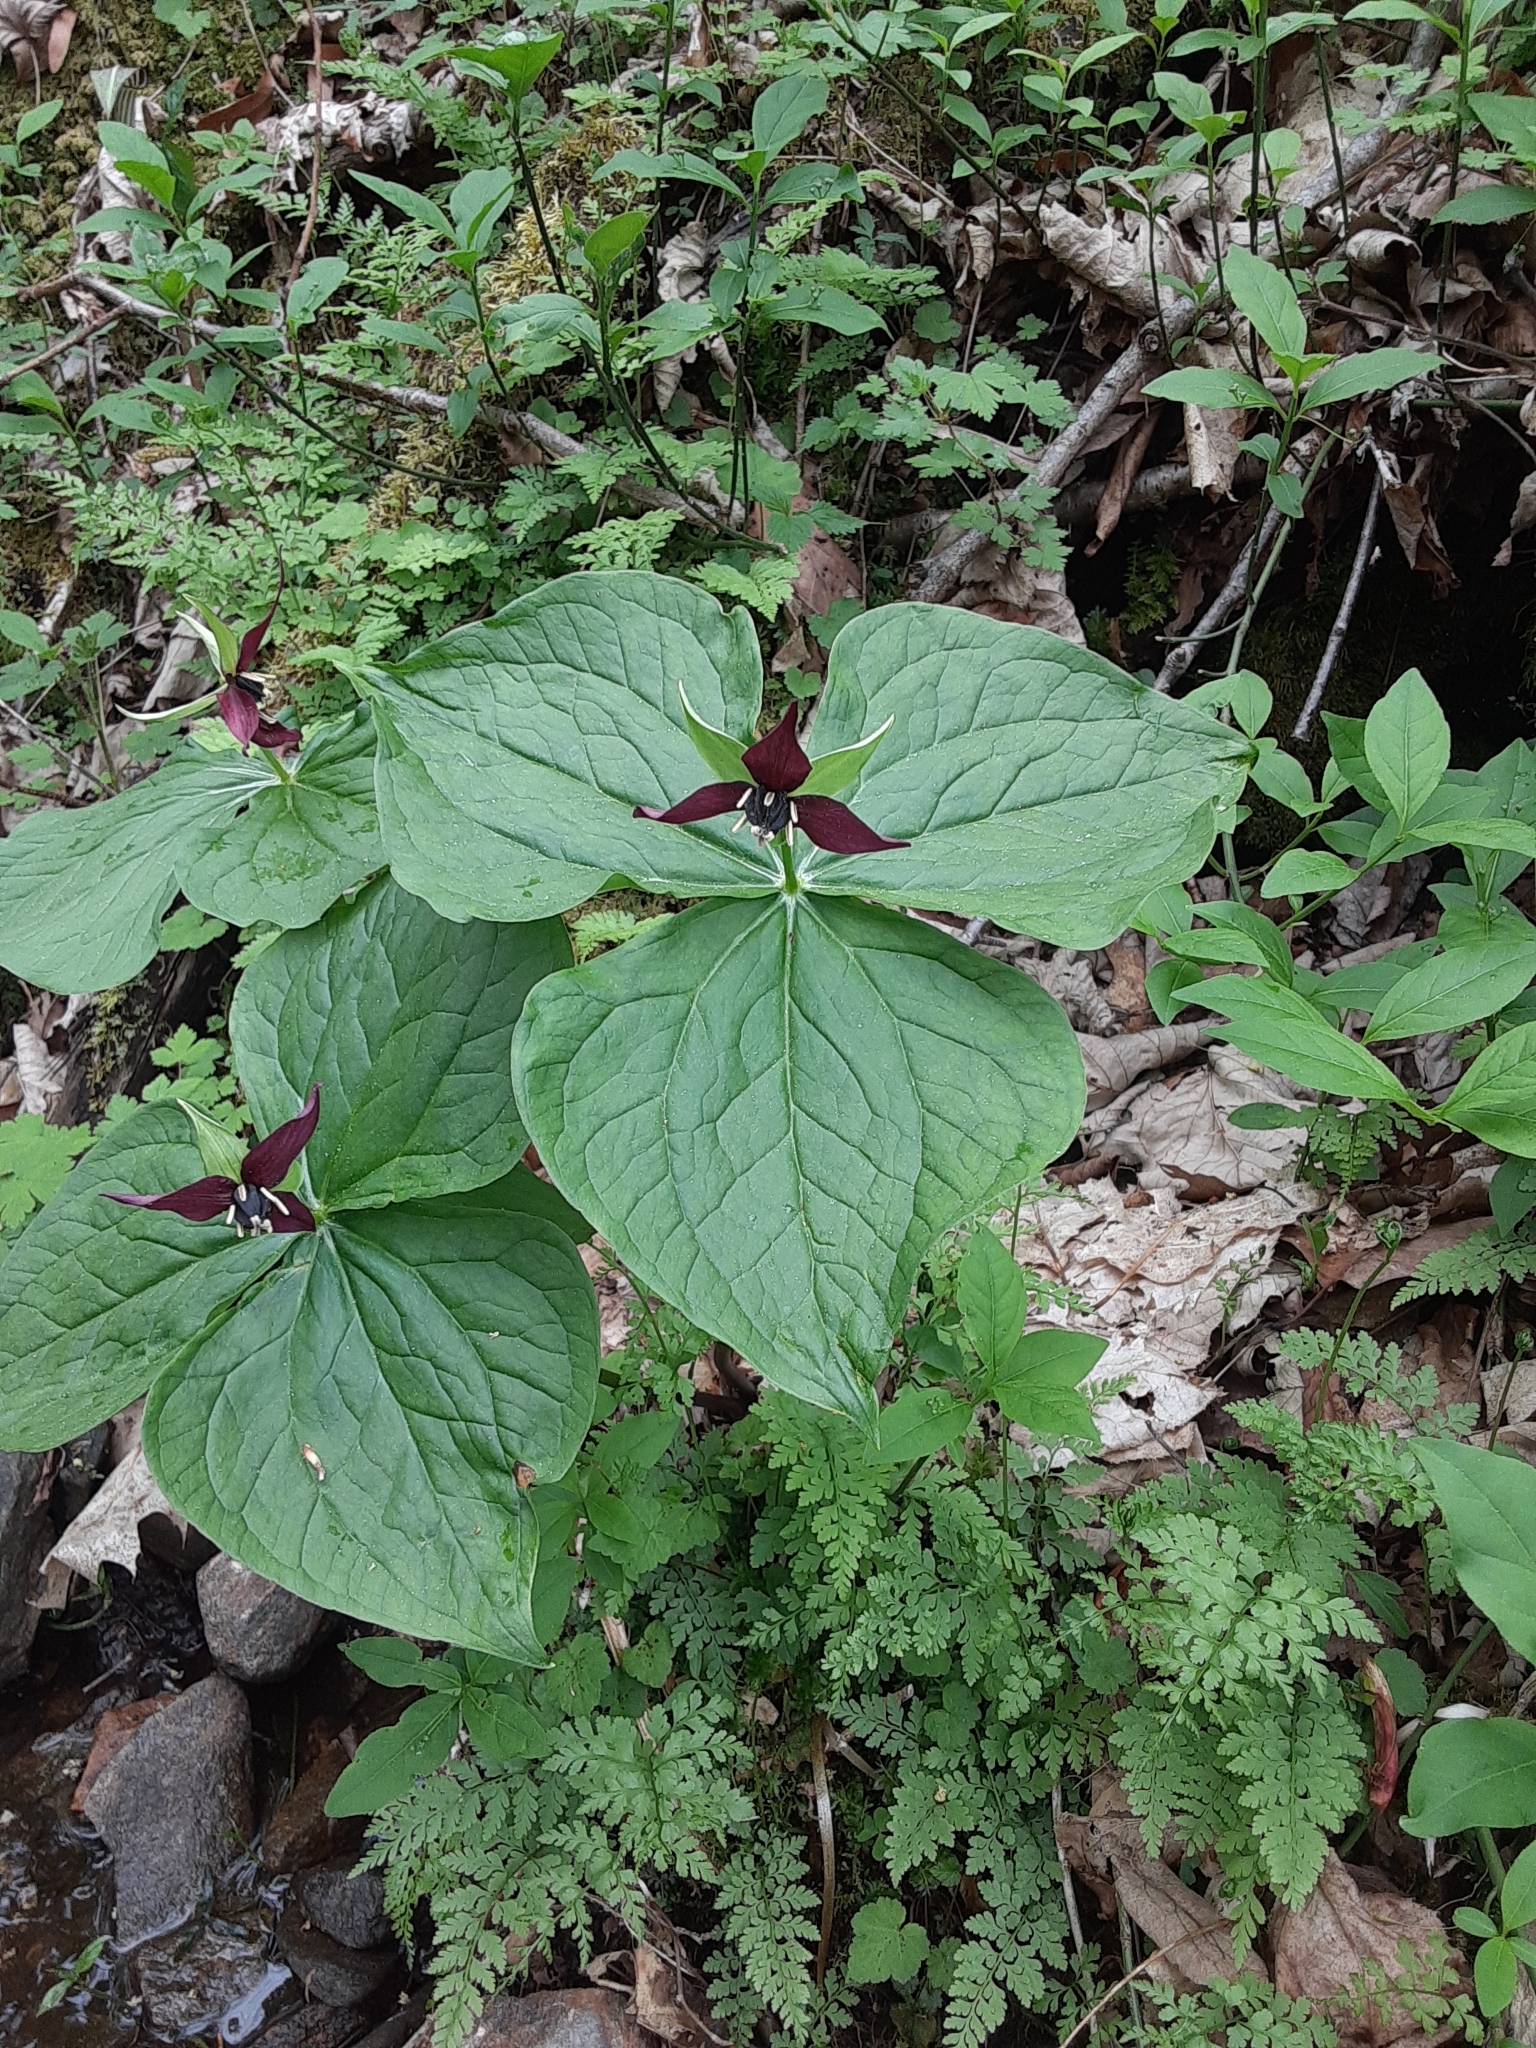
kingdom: Plantae
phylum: Tracheophyta
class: Liliopsida
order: Liliales
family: Melanthiaceae
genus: Trillium
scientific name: Trillium erectum
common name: Purple trillium
